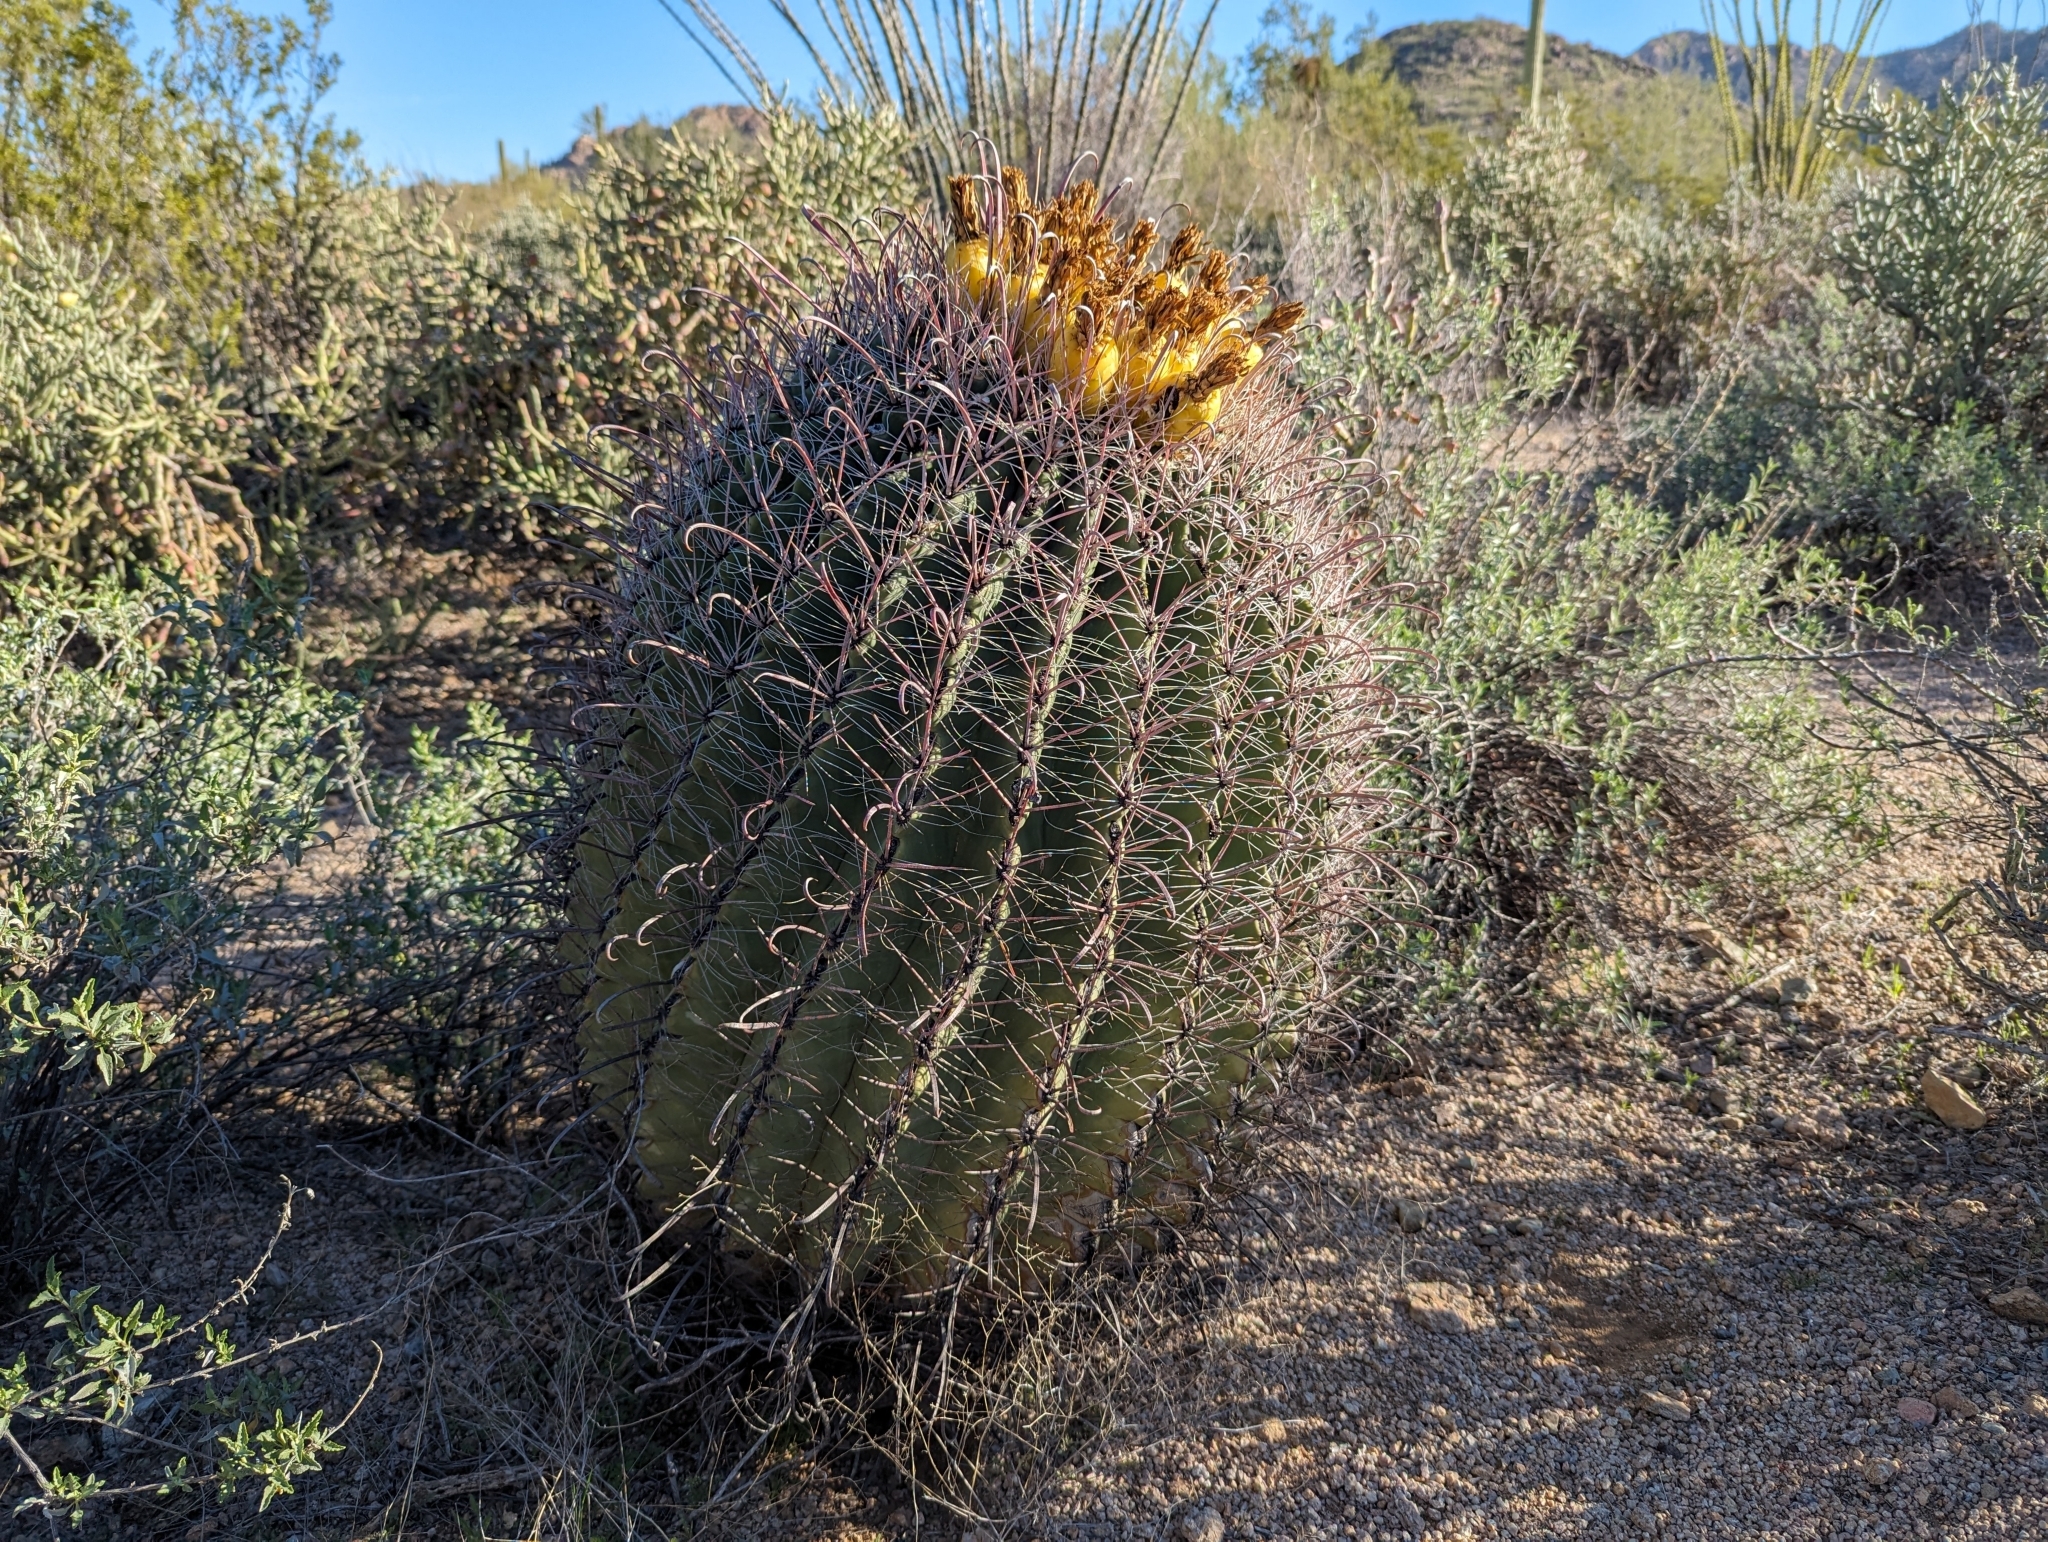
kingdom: Plantae
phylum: Tracheophyta
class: Magnoliopsida
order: Caryophyllales
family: Cactaceae
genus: Ferocactus
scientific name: Ferocactus wislizeni
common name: Candy barrel cactus
